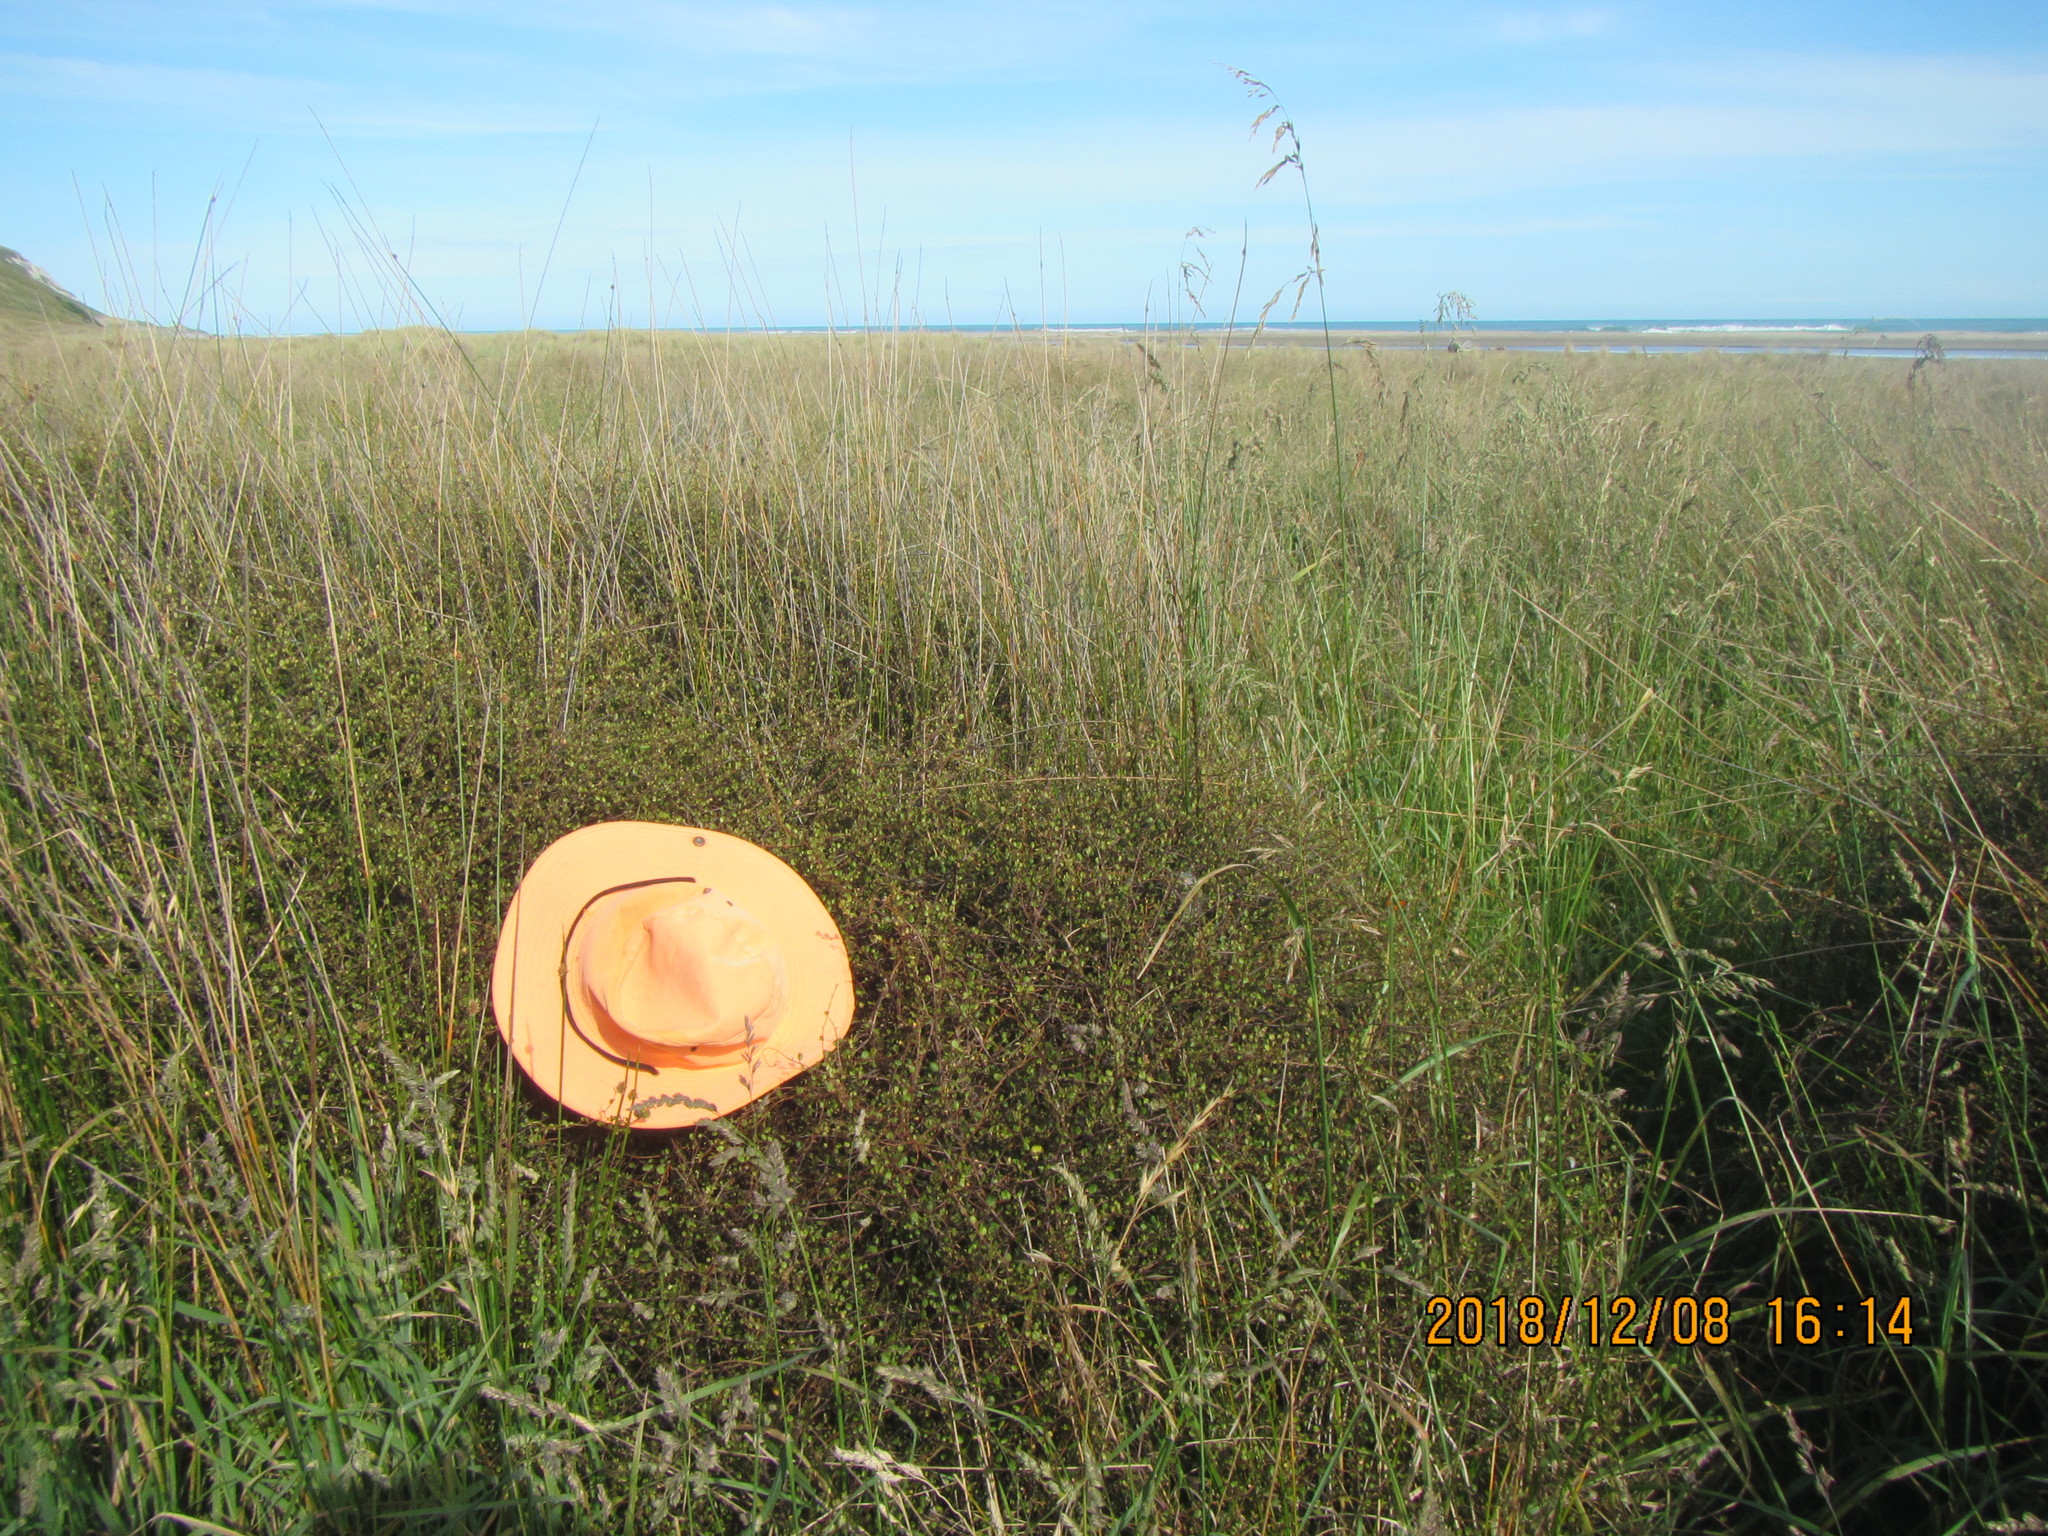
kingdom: Plantae
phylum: Tracheophyta
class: Magnoliopsida
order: Caryophyllales
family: Polygonaceae
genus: Muehlenbeckia
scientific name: Muehlenbeckia complexa
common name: Wireplant
